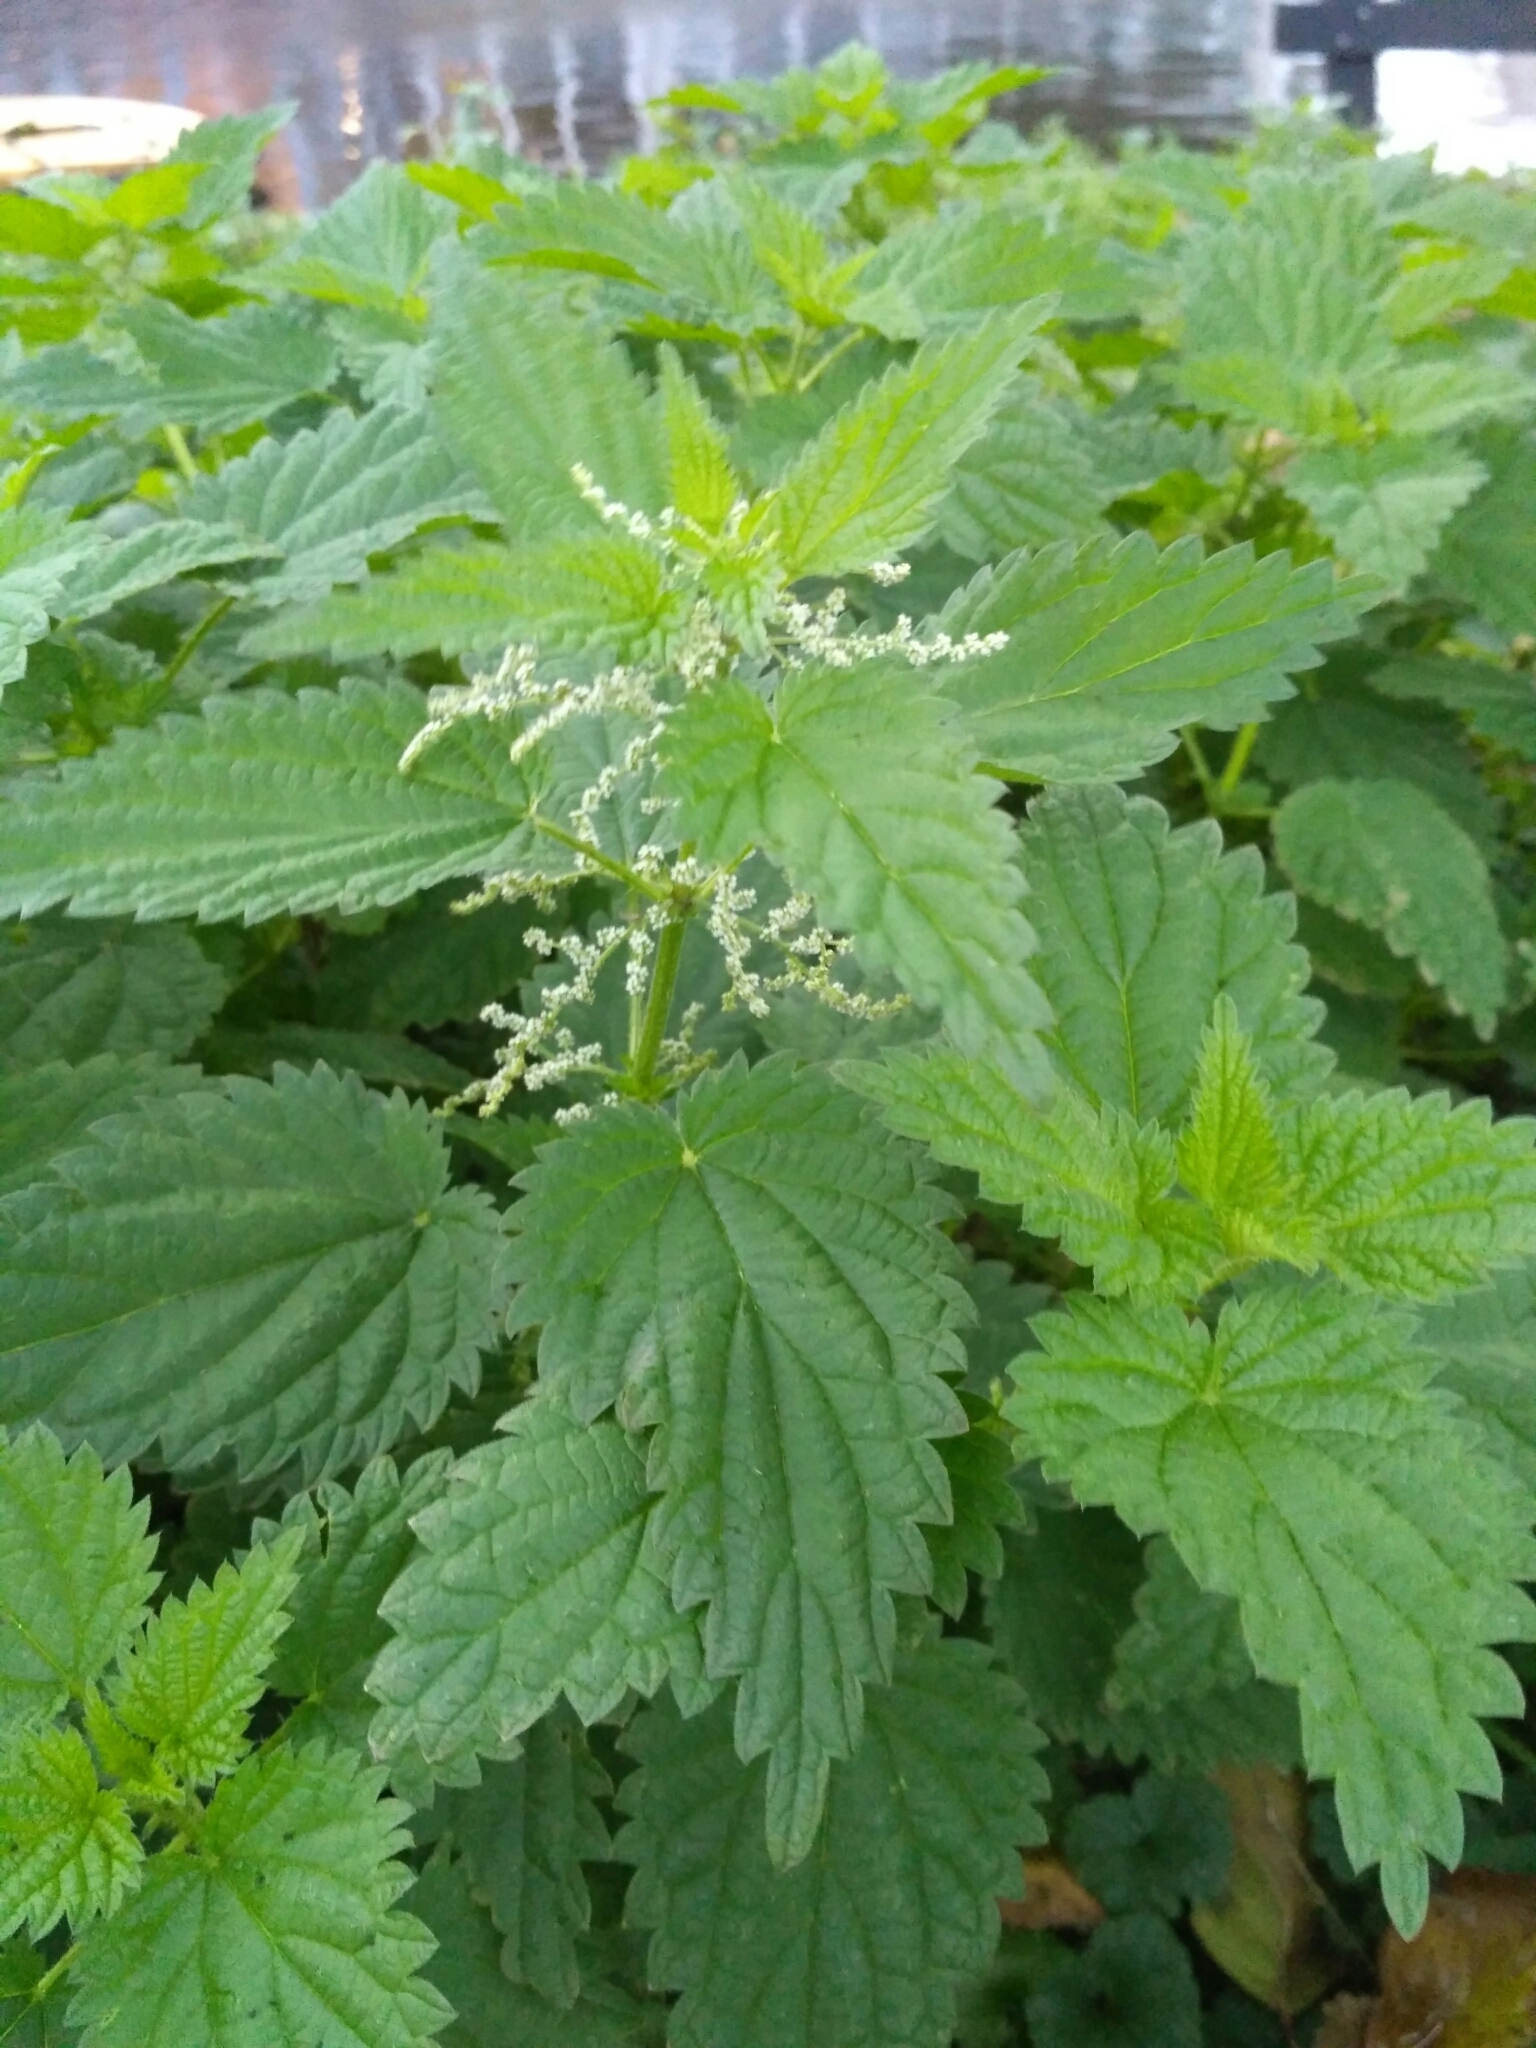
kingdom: Plantae
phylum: Tracheophyta
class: Magnoliopsida
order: Rosales
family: Urticaceae
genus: Urtica
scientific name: Urtica dioica
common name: Common nettle
